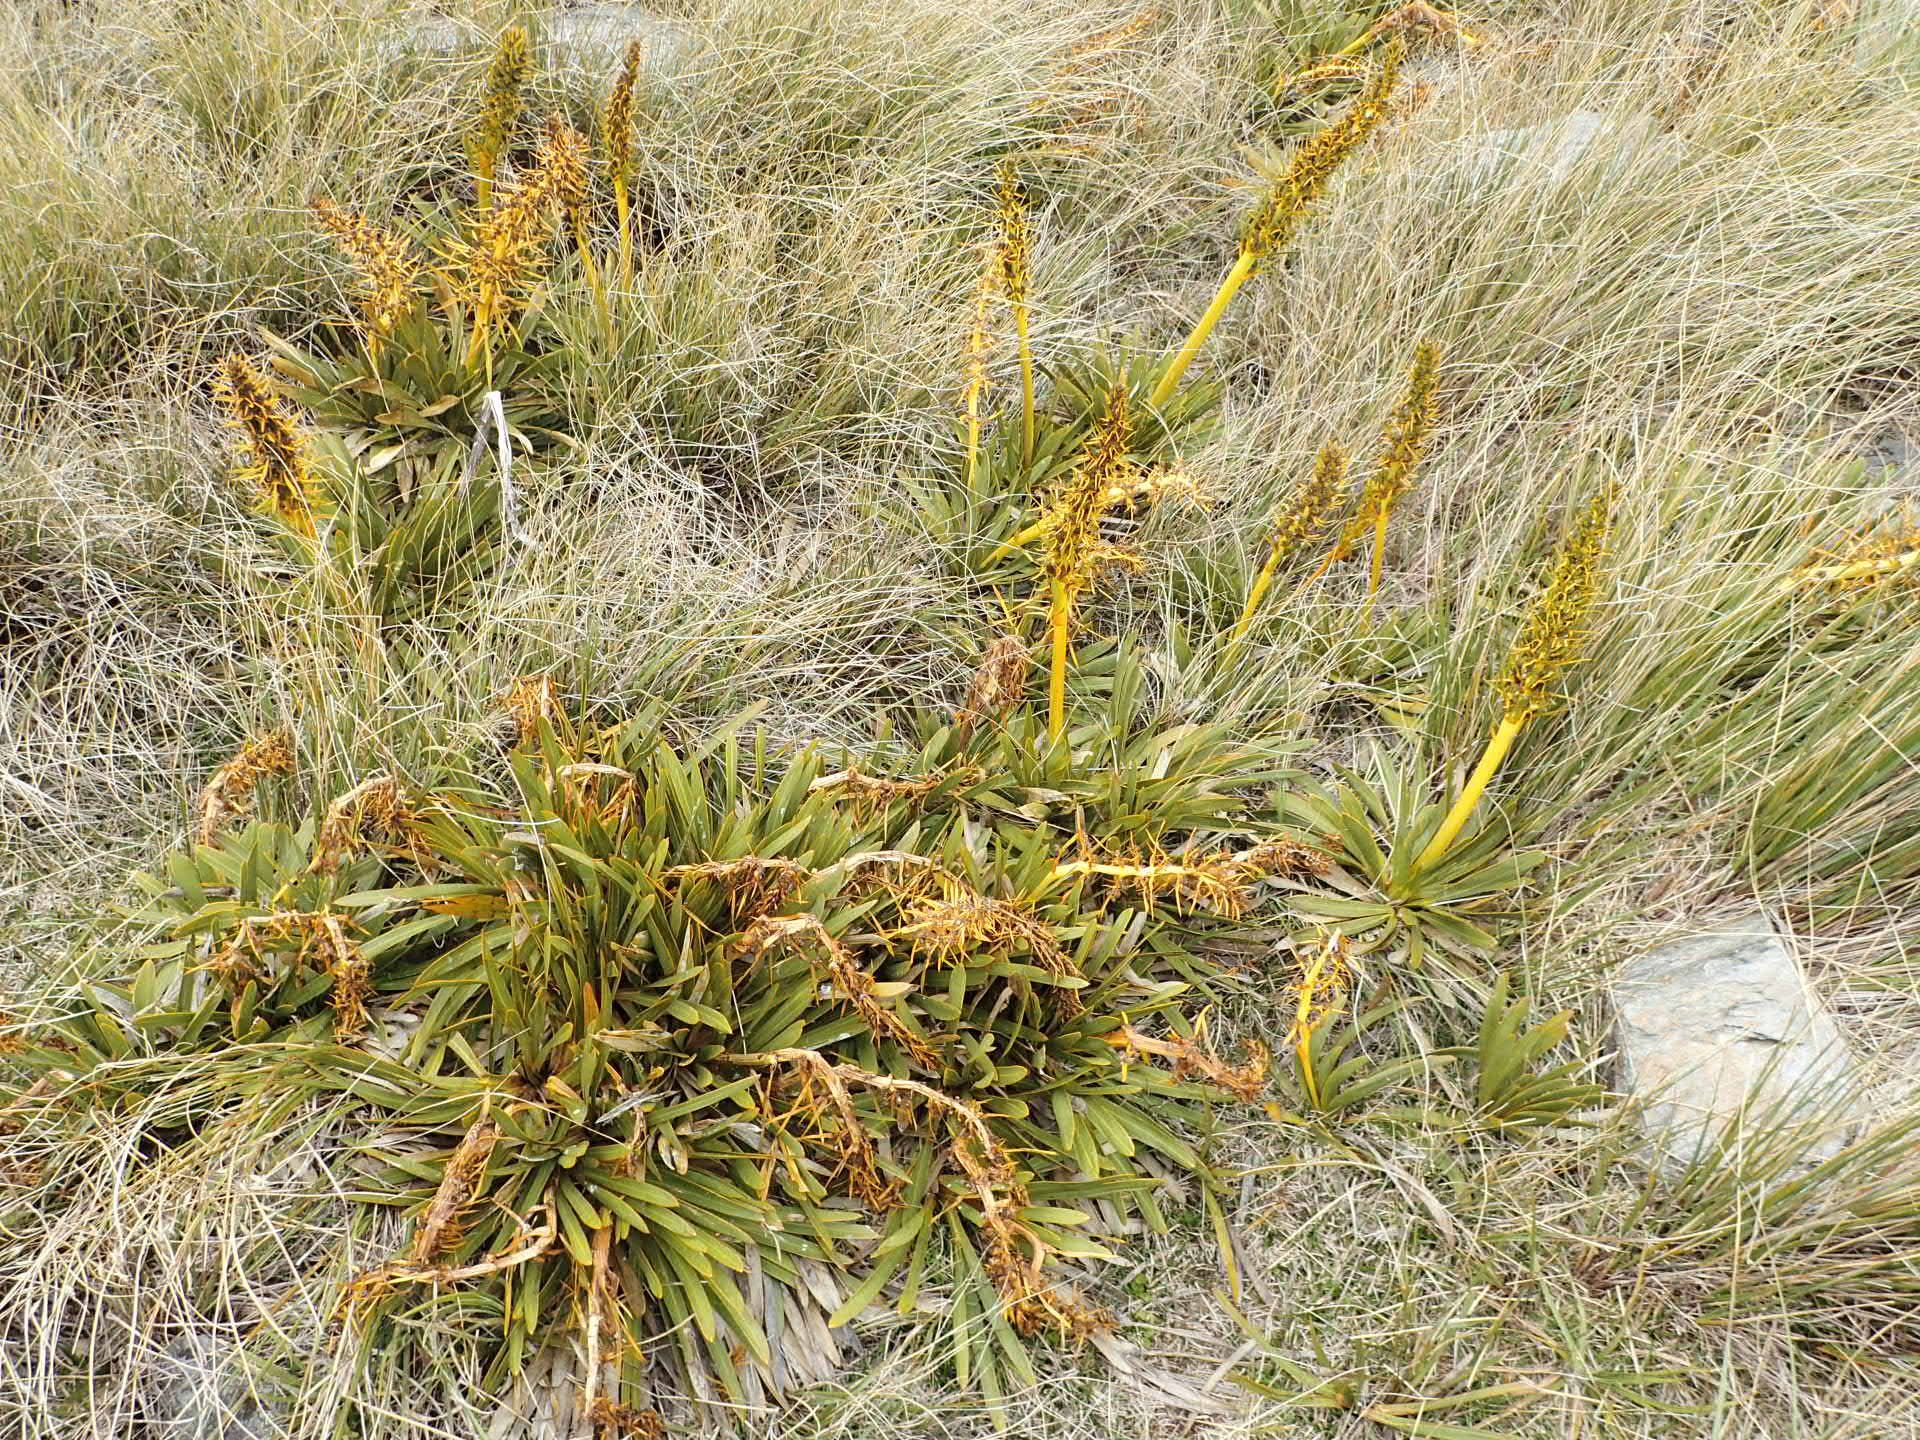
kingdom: Plantae
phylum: Tracheophyta
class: Magnoliopsida
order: Apiales
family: Apiaceae
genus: Aciphylla
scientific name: Aciphylla kirkii
